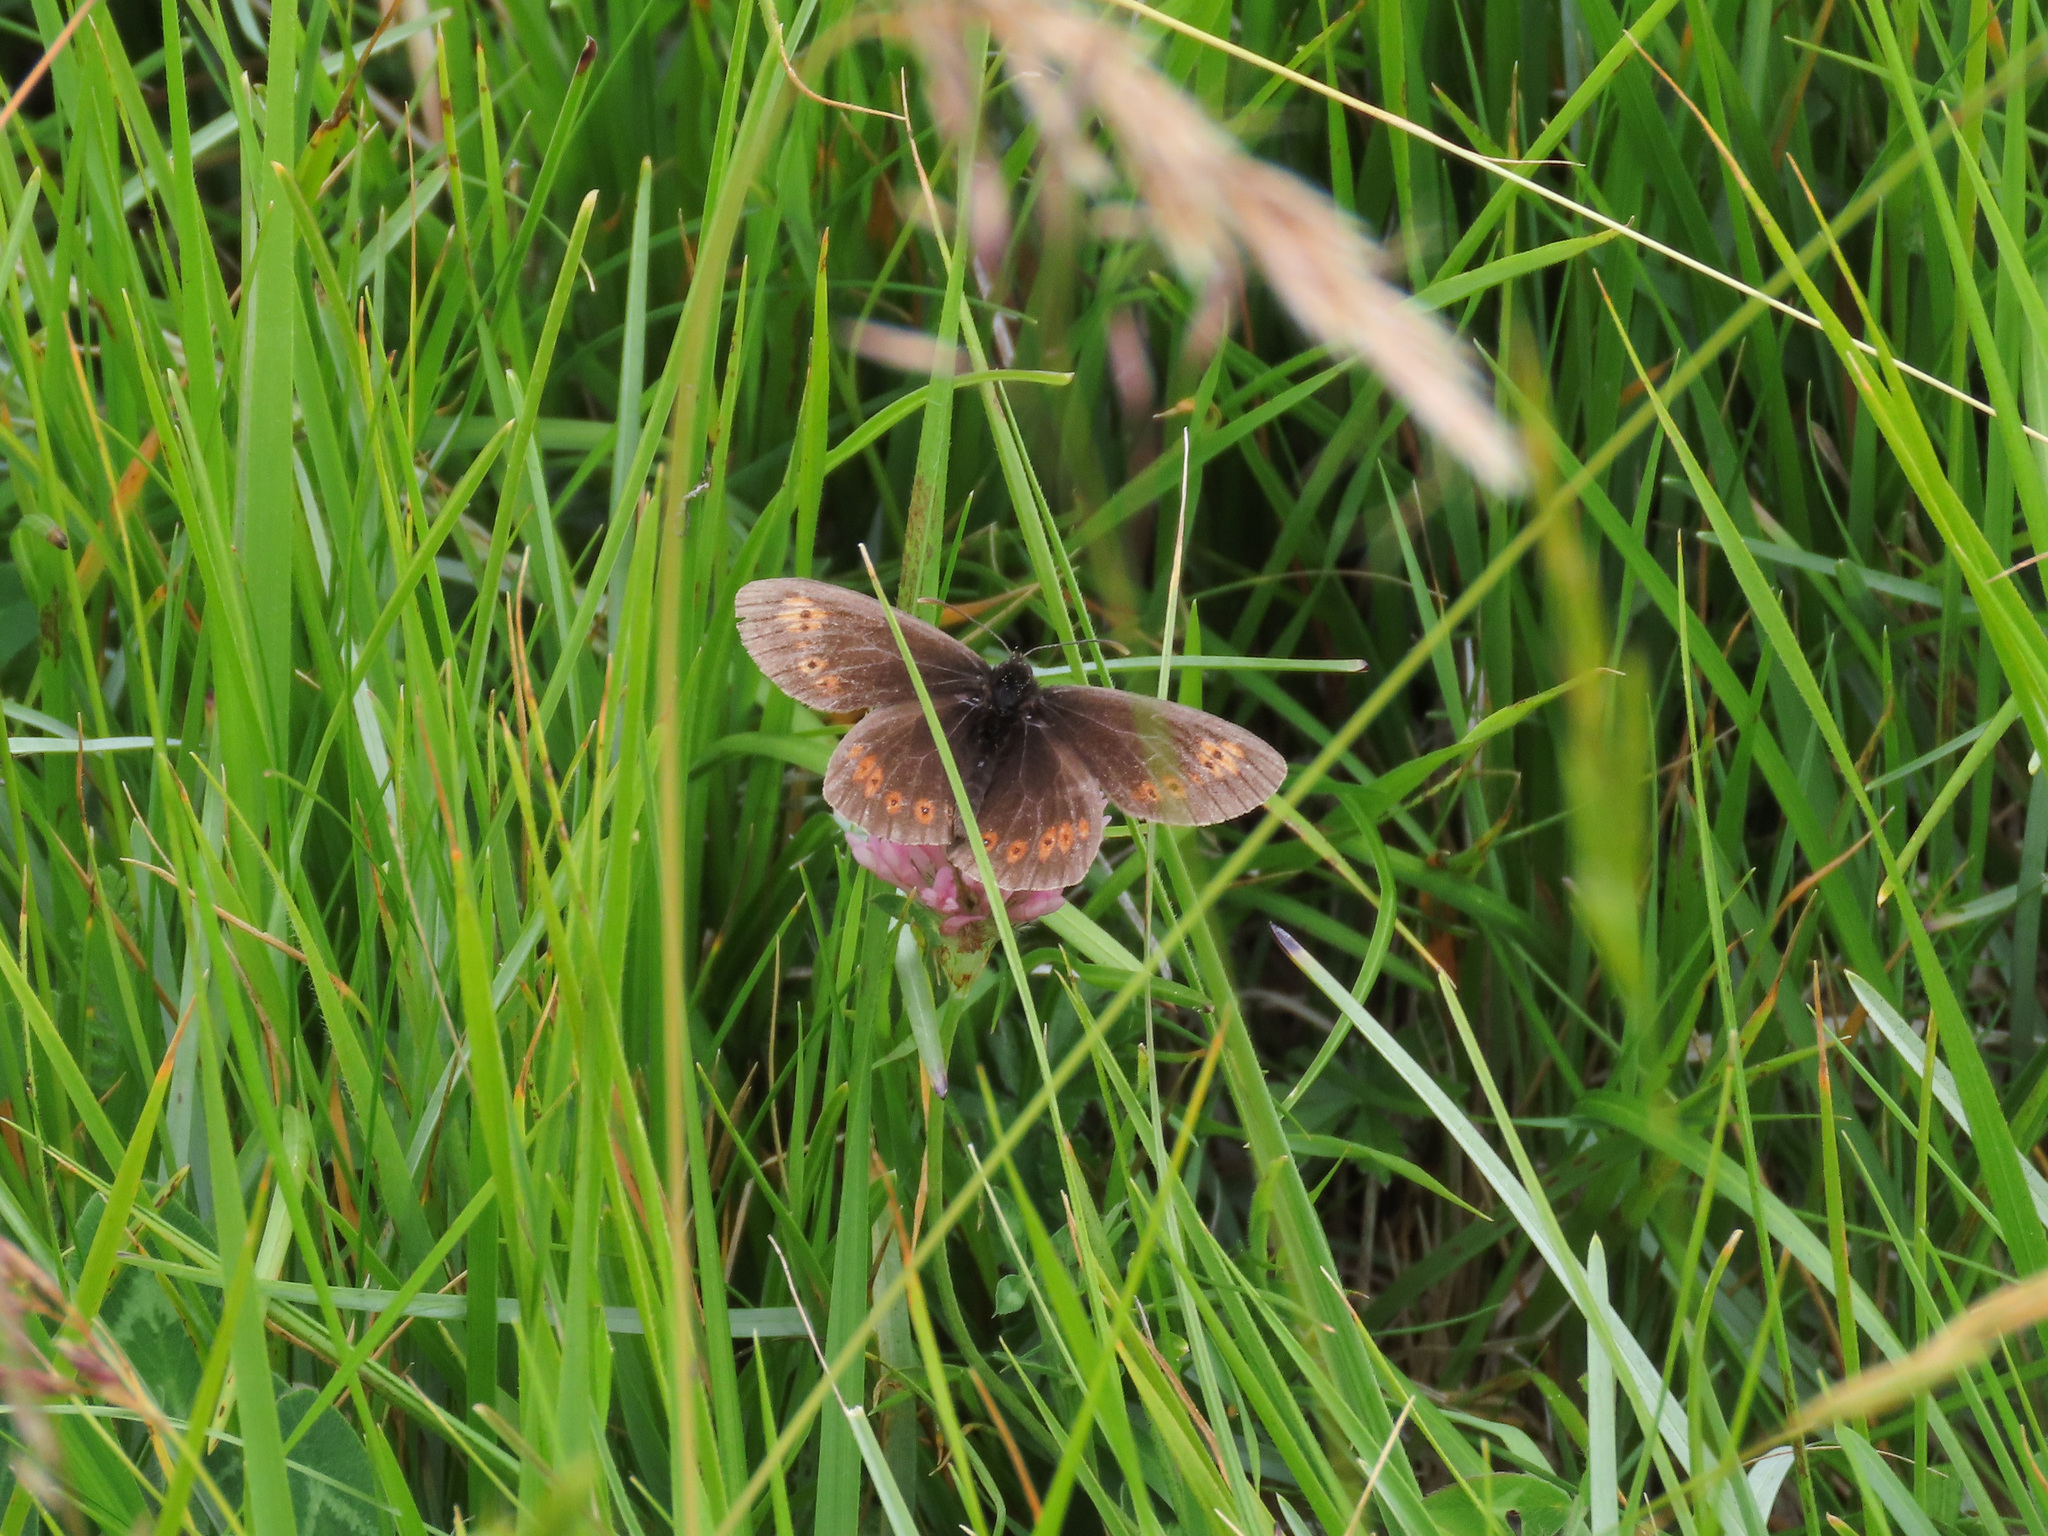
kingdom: Animalia
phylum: Arthropoda
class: Insecta
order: Lepidoptera
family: Nymphalidae
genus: Erebia
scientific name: Erebia alberganus
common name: Almond-eyed ringlet
